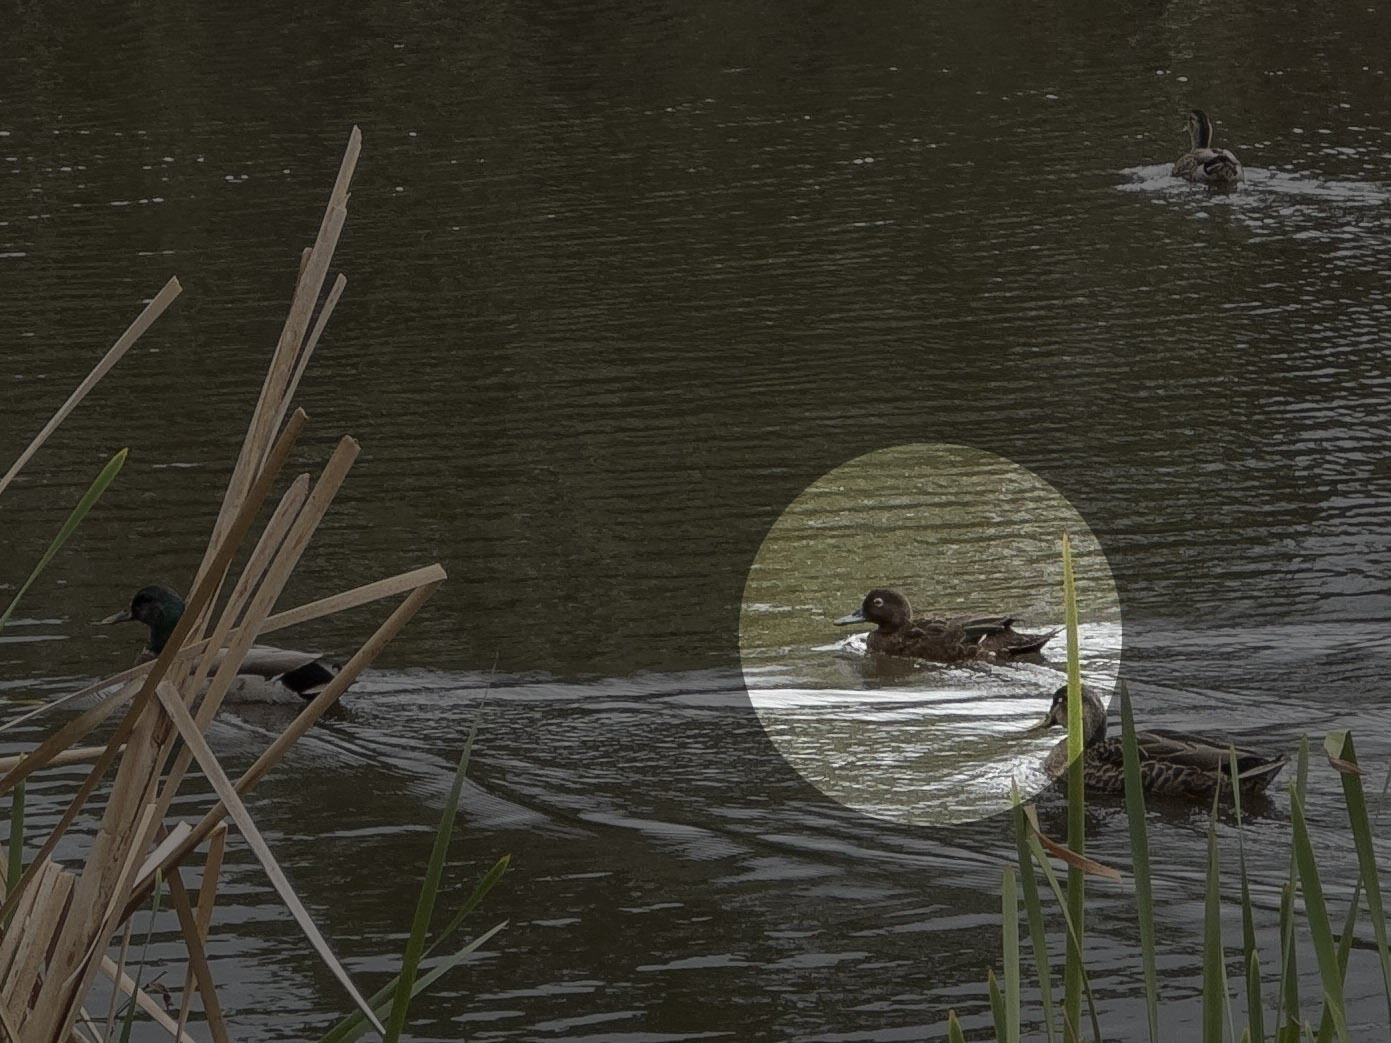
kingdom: Animalia
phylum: Chordata
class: Aves
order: Anseriformes
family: Anatidae
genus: Anas
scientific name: Anas chlorotis
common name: Brown teal
